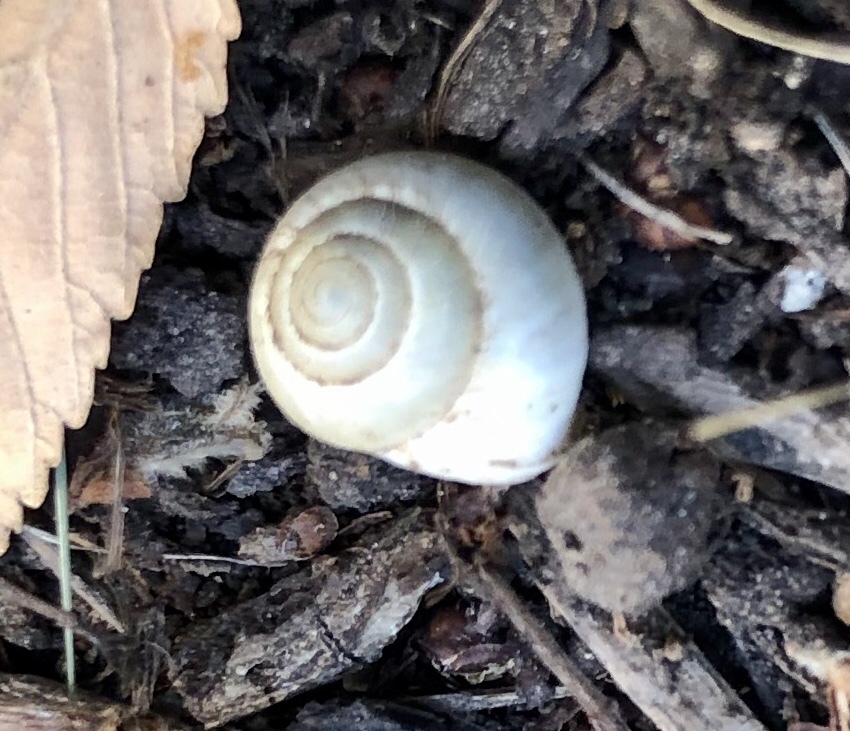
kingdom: Animalia
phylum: Mollusca
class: Gastropoda
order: Cycloneritida
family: Helicinidae
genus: Helicina
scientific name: Helicina orbiculata
